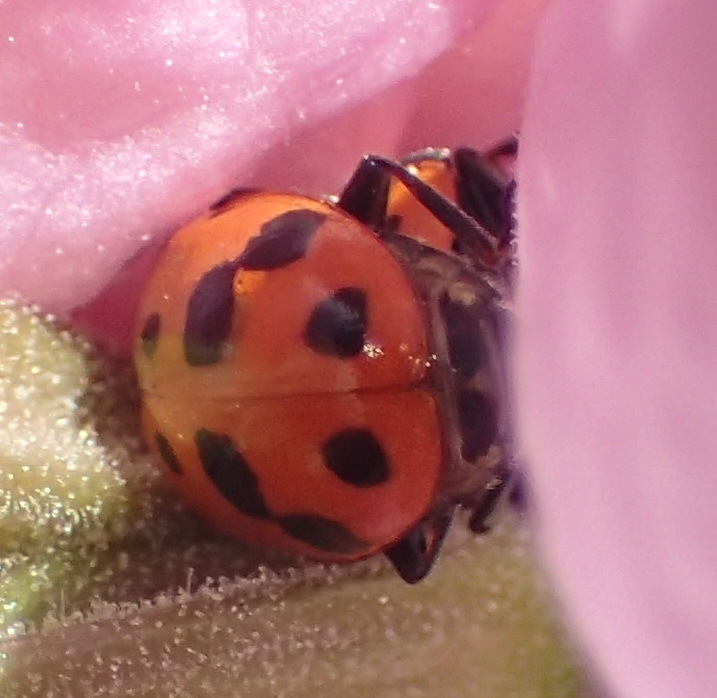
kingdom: Animalia
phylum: Arthropoda
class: Insecta
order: Coleoptera
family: Coccinellidae
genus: Hippodamia
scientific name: Hippodamia variegata
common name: Ladybird beetle
